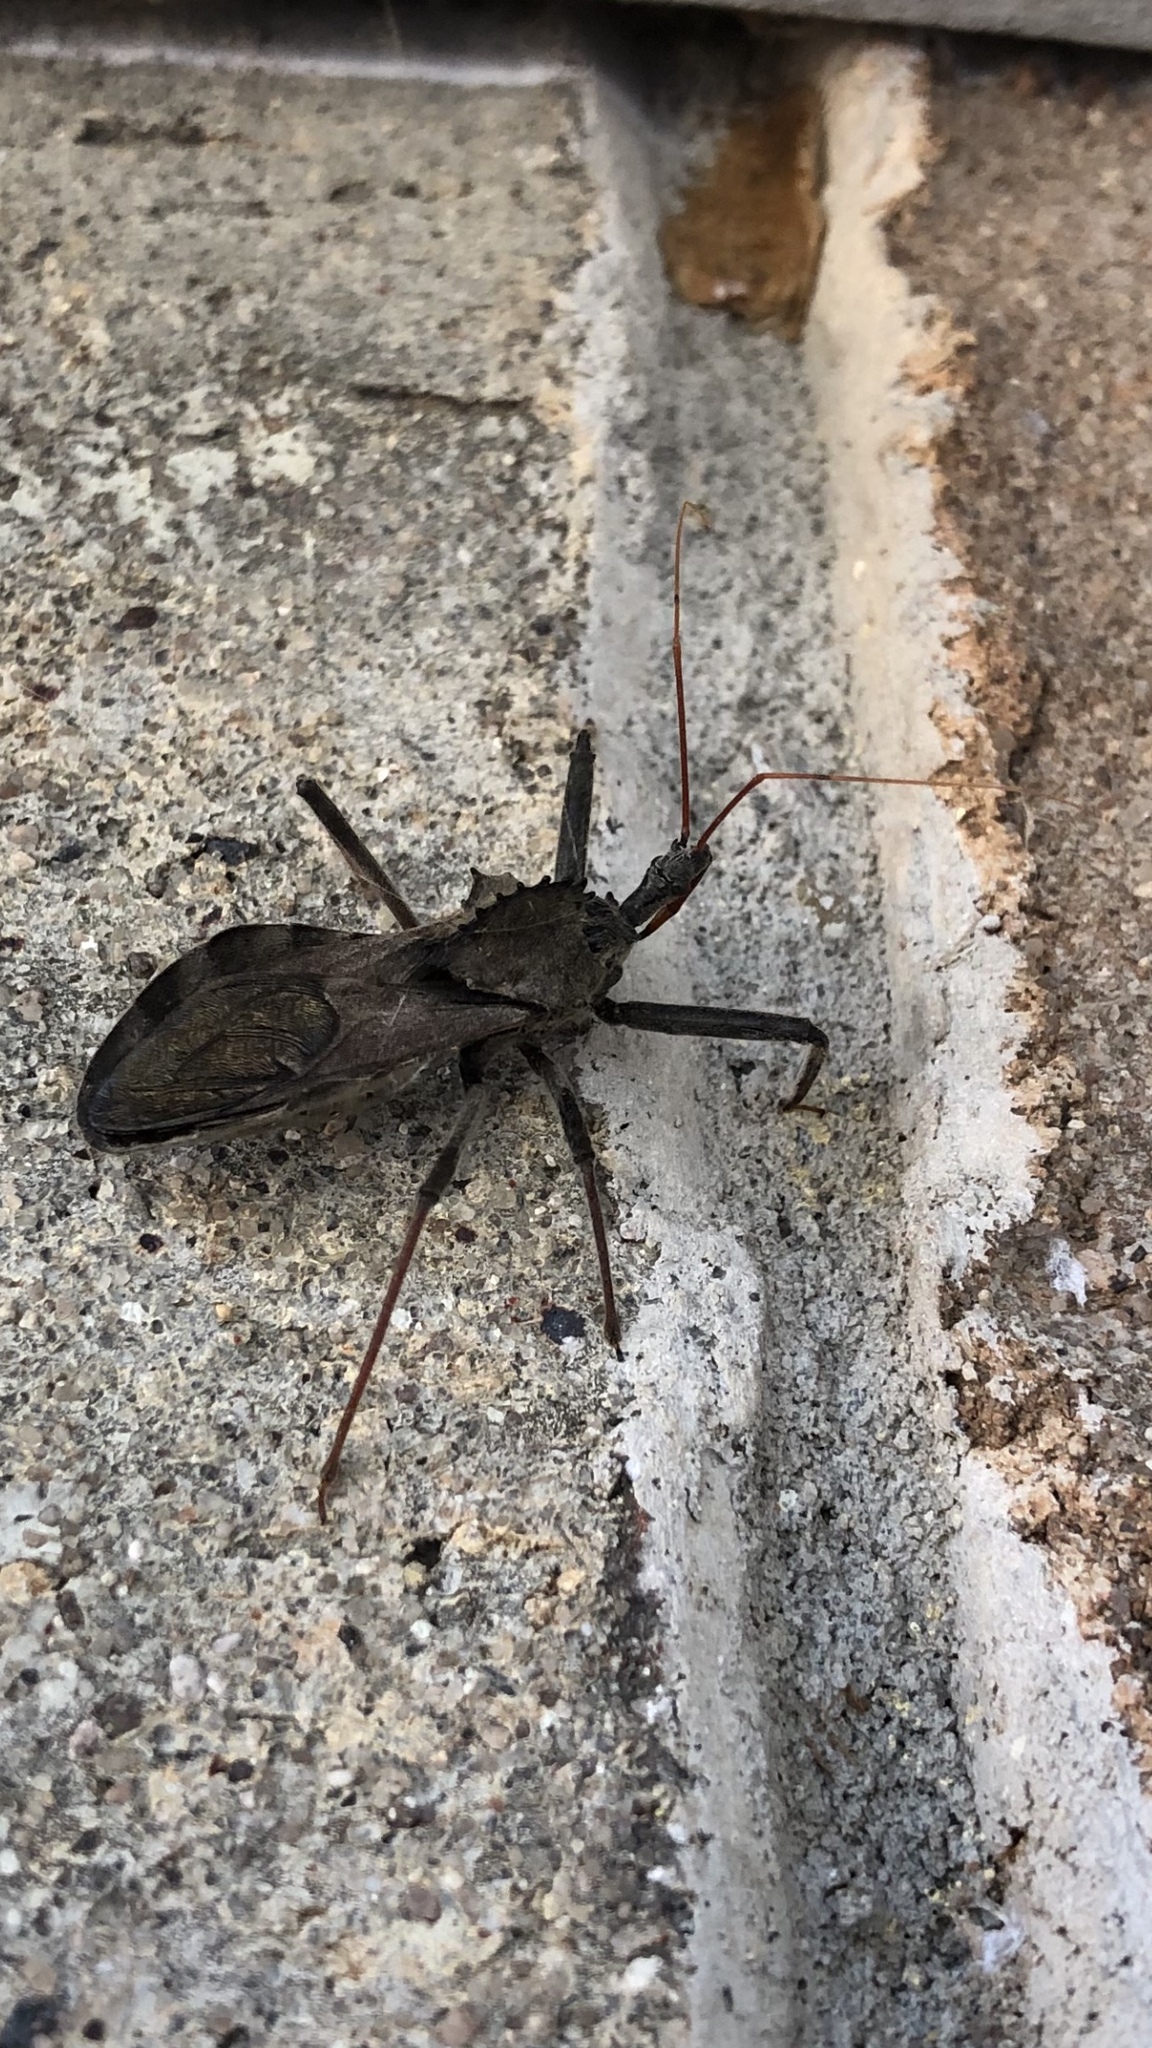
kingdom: Animalia
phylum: Arthropoda
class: Insecta
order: Hemiptera
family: Reduviidae
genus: Arilus
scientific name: Arilus cristatus
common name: North american wheel bug
